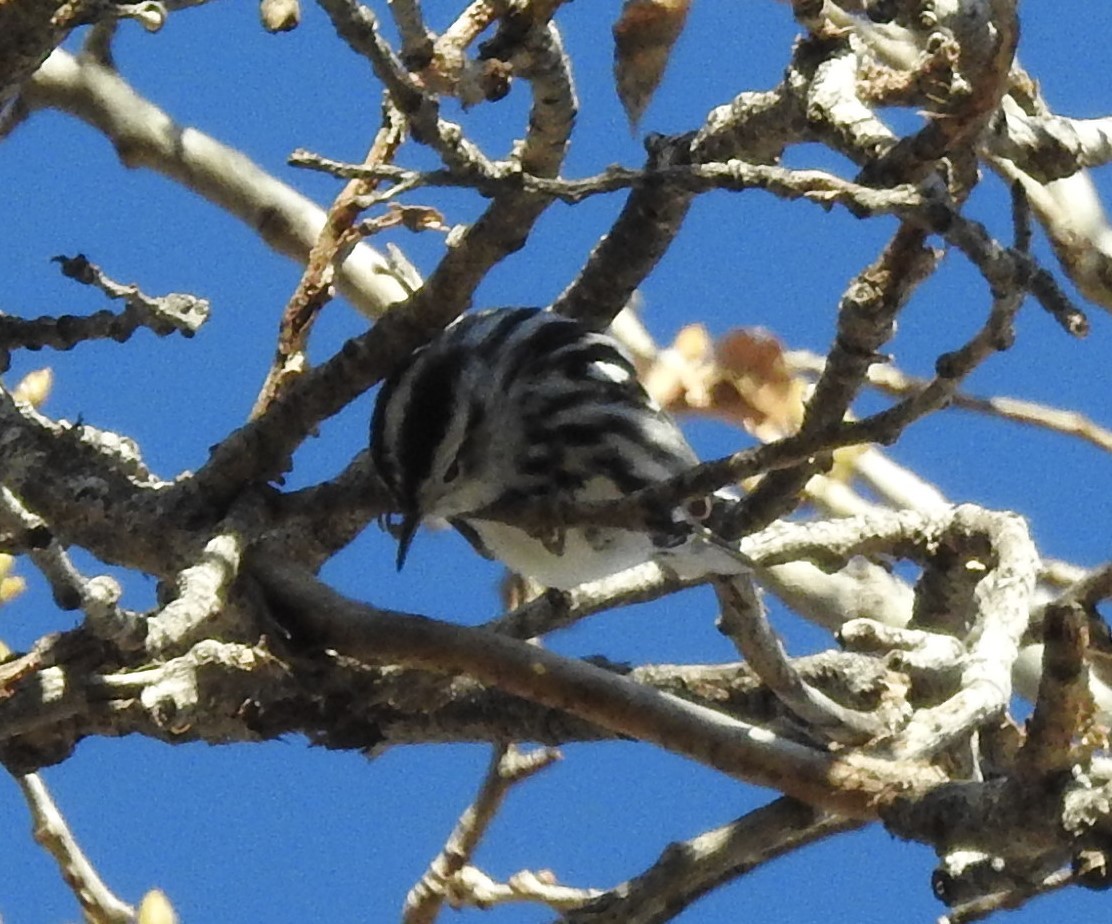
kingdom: Animalia
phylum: Chordata
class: Aves
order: Passeriformes
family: Parulidae
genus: Mniotilta
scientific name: Mniotilta varia
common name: Black-and-white warbler
